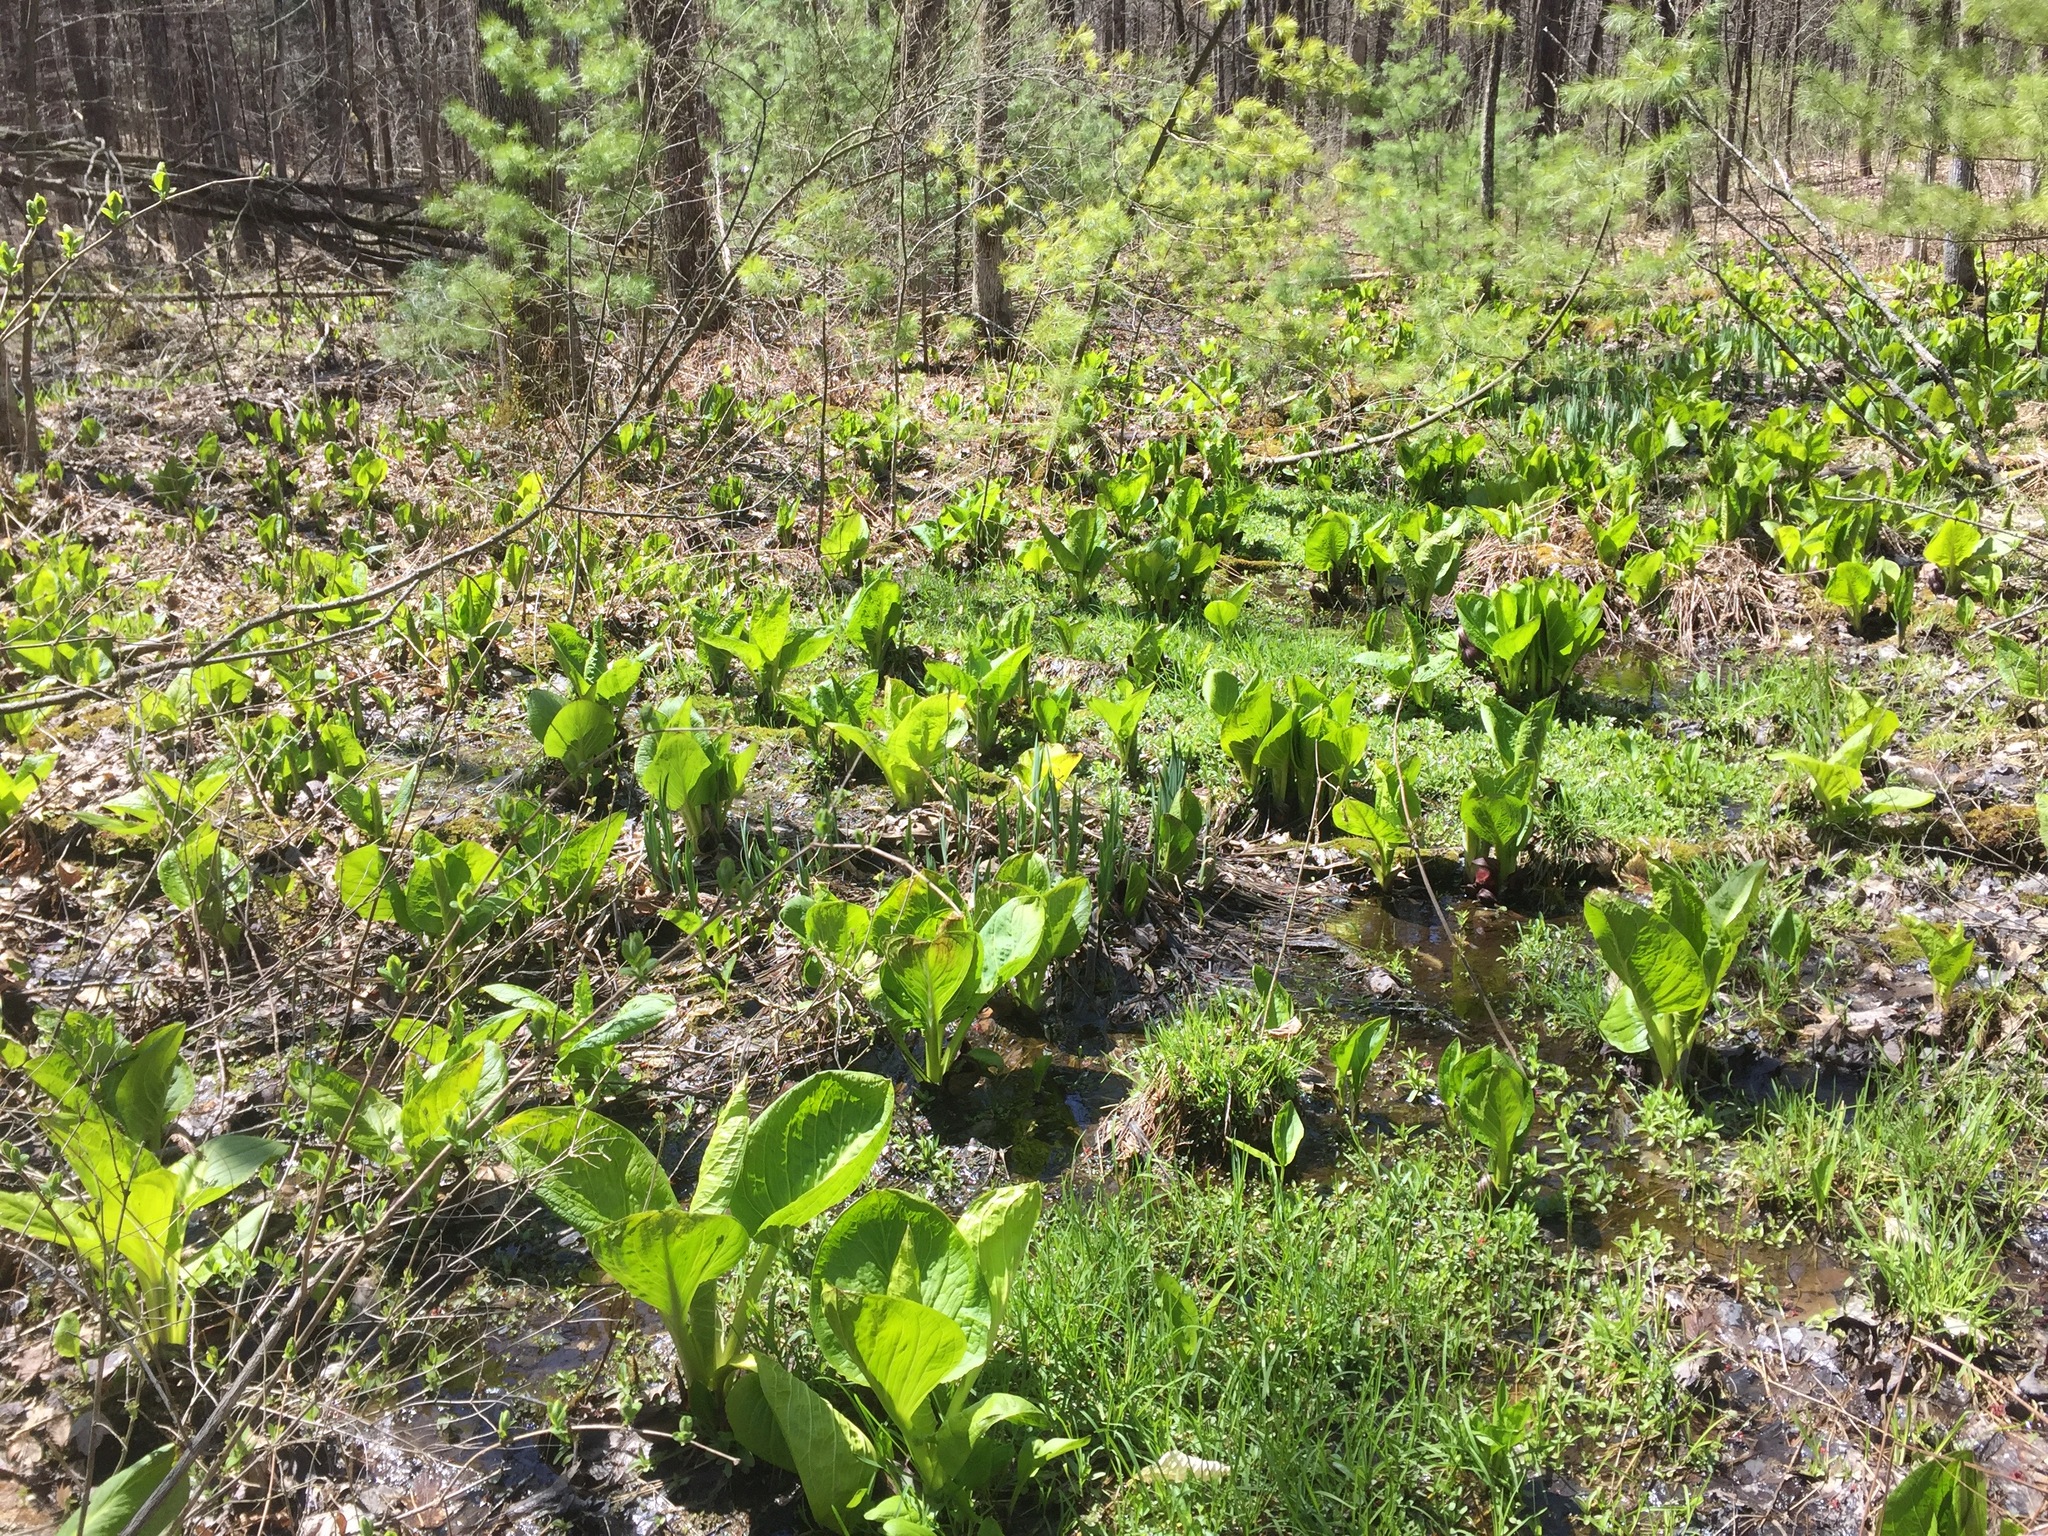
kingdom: Plantae
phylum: Tracheophyta
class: Liliopsida
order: Alismatales
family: Araceae
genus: Symplocarpus
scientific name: Symplocarpus foetidus
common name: Eastern skunk cabbage
